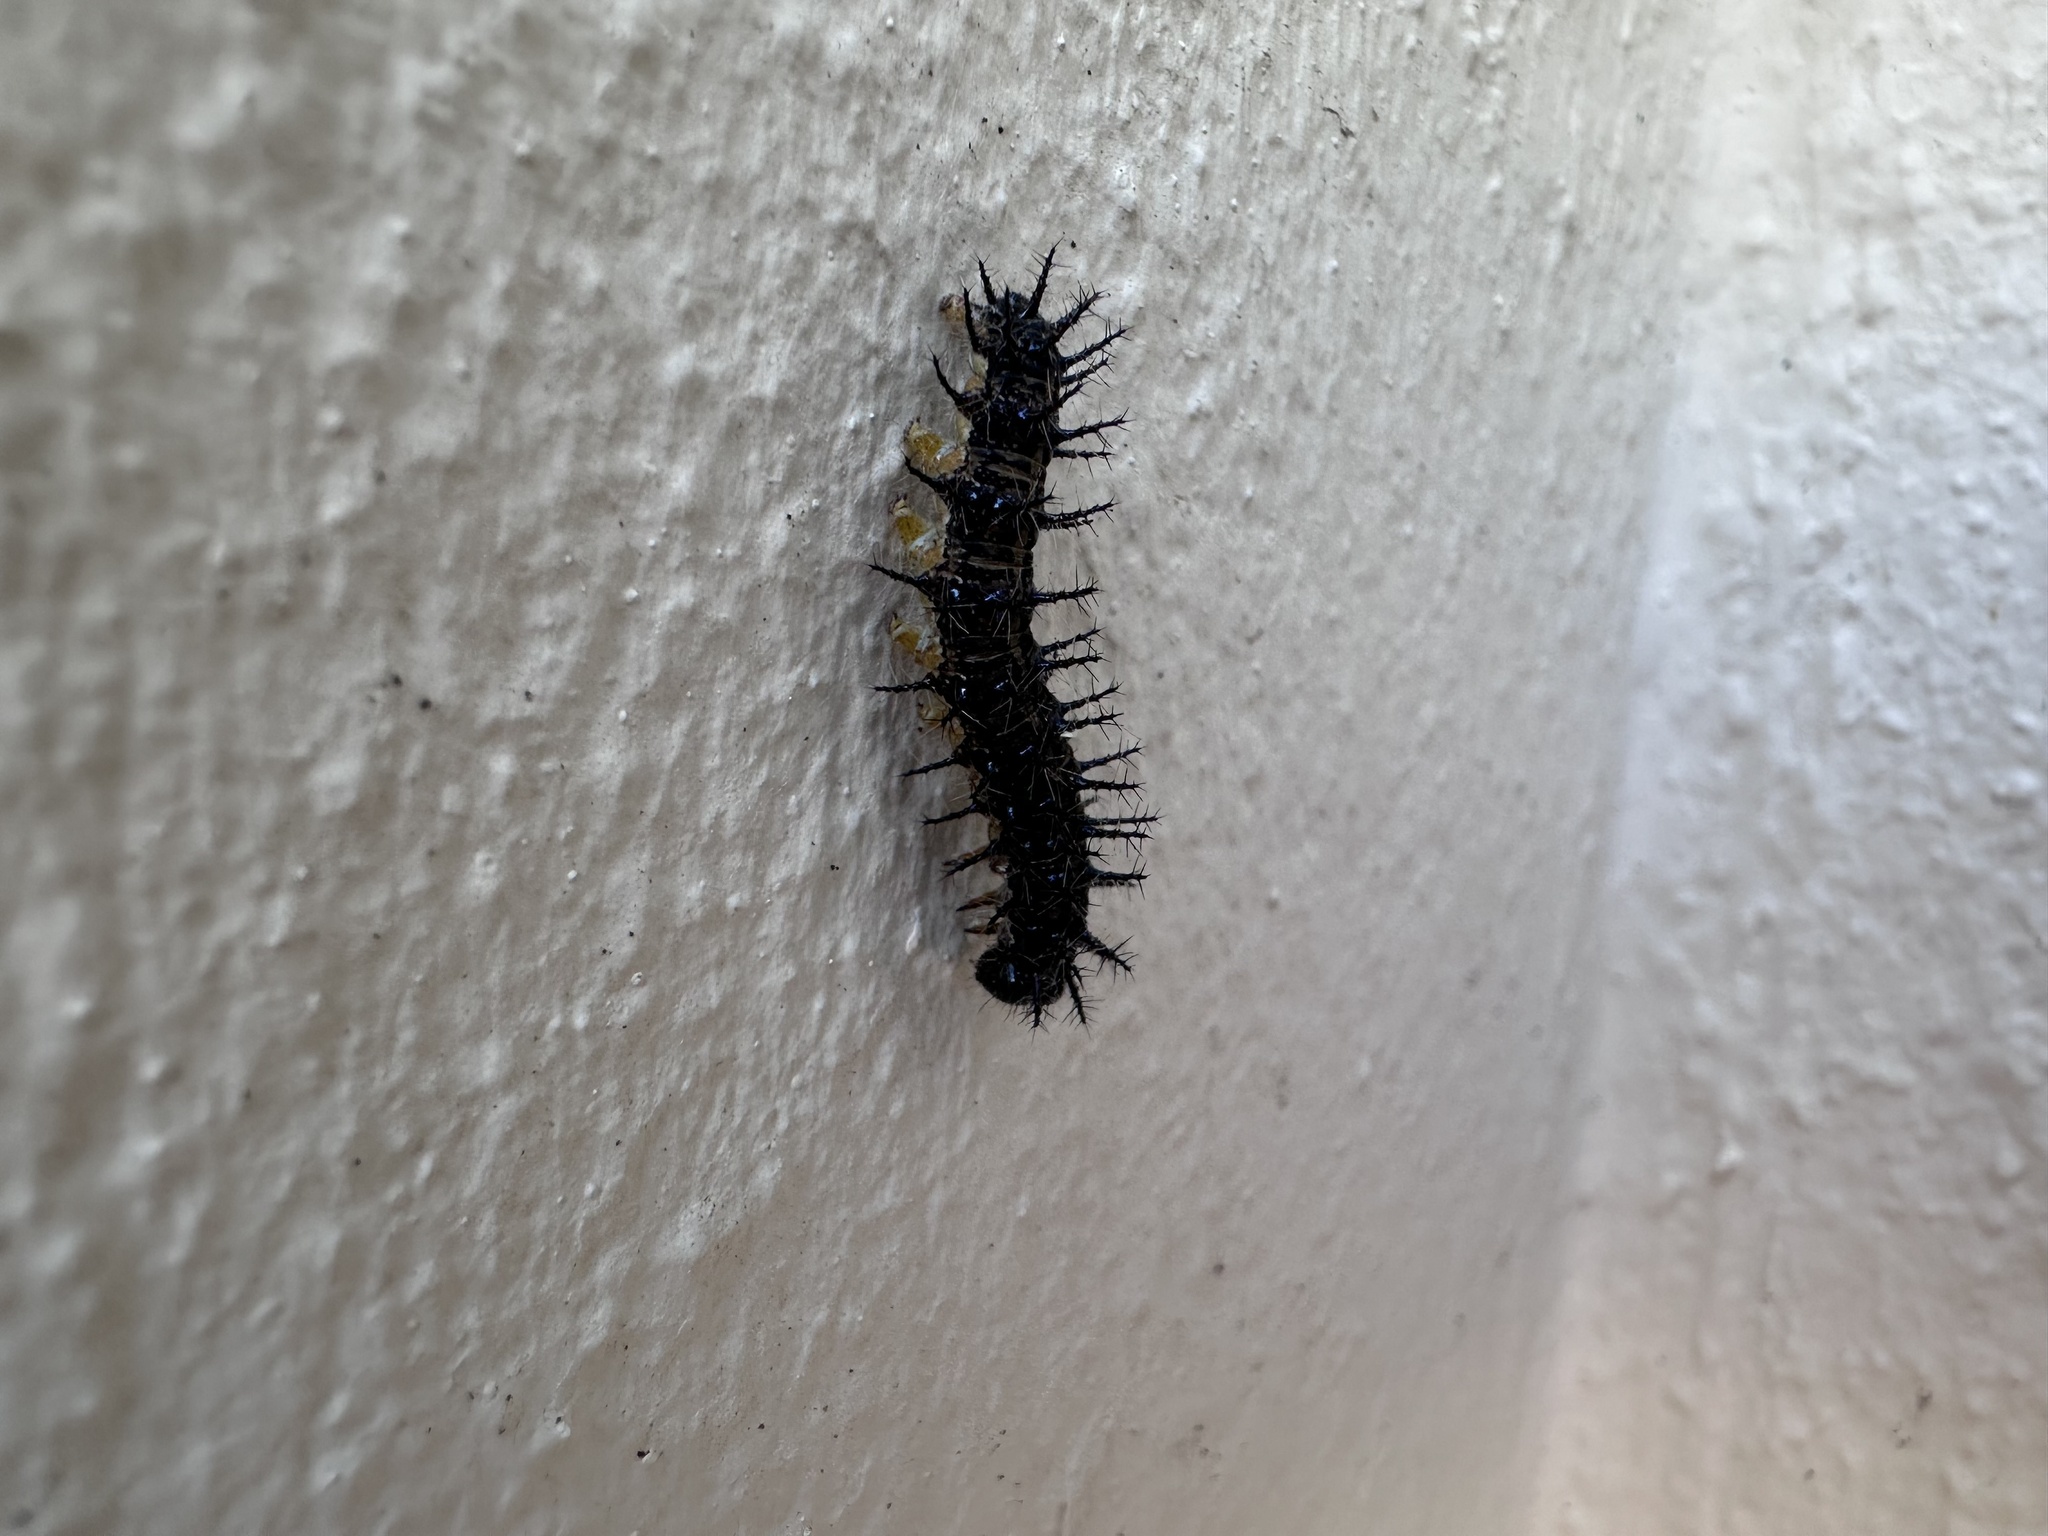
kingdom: Animalia
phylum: Arthropoda
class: Insecta
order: Lepidoptera
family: Nymphalidae
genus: Acraea
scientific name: Acraea horta
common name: Garden acraea
